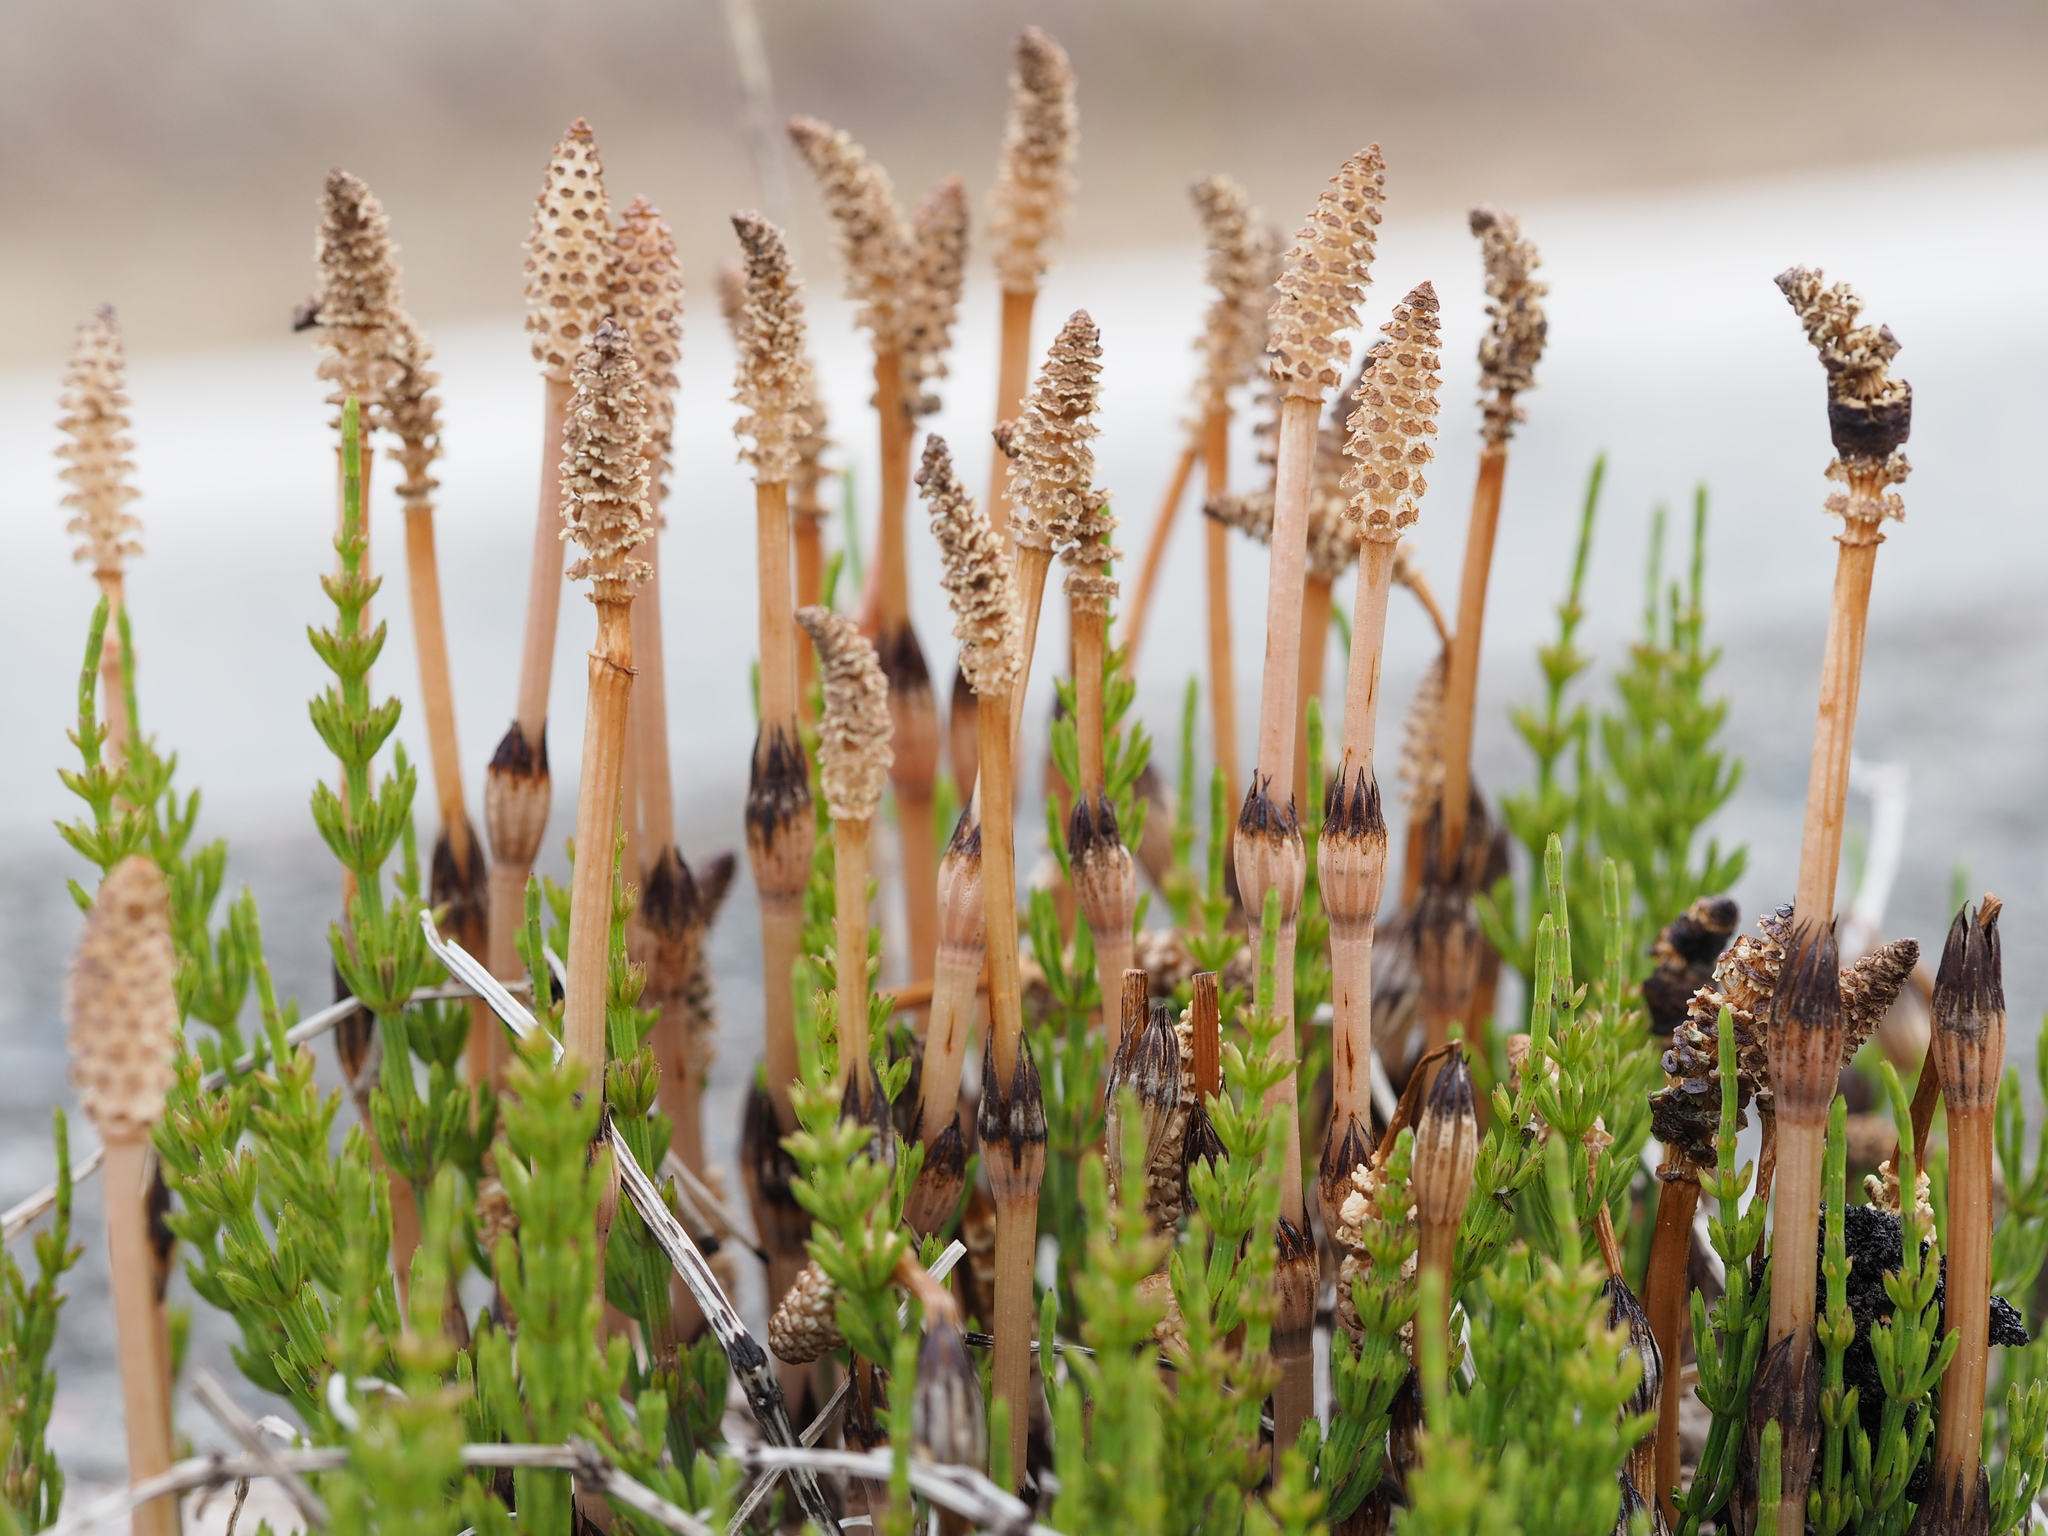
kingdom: Plantae
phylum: Tracheophyta
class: Polypodiopsida
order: Equisetales
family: Equisetaceae
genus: Equisetum
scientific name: Equisetum arvense
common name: Field horsetail
